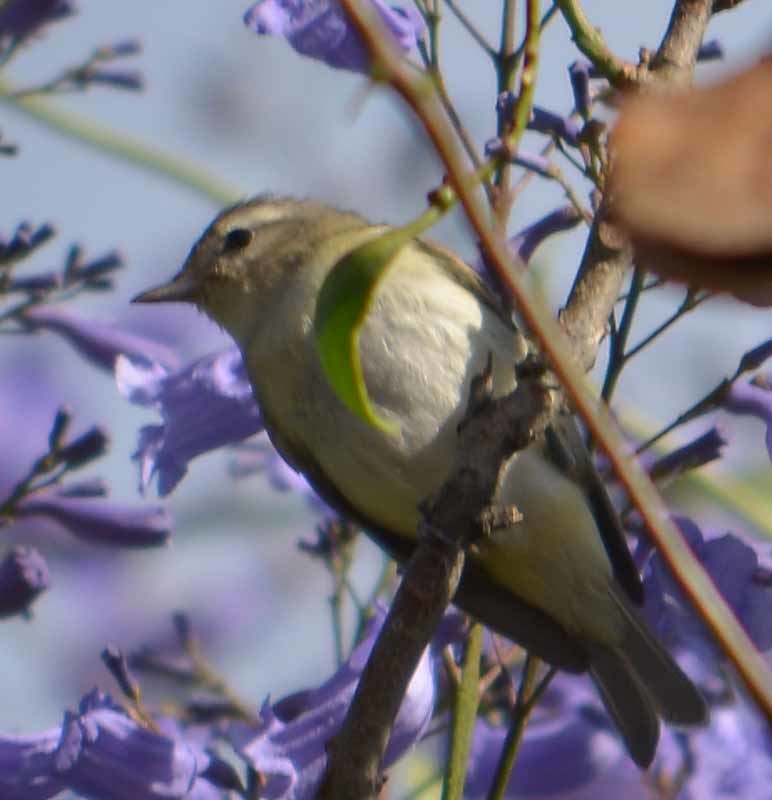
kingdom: Animalia
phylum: Chordata
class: Aves
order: Passeriformes
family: Vireonidae
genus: Vireo
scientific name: Vireo gilvus
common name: Warbling vireo
